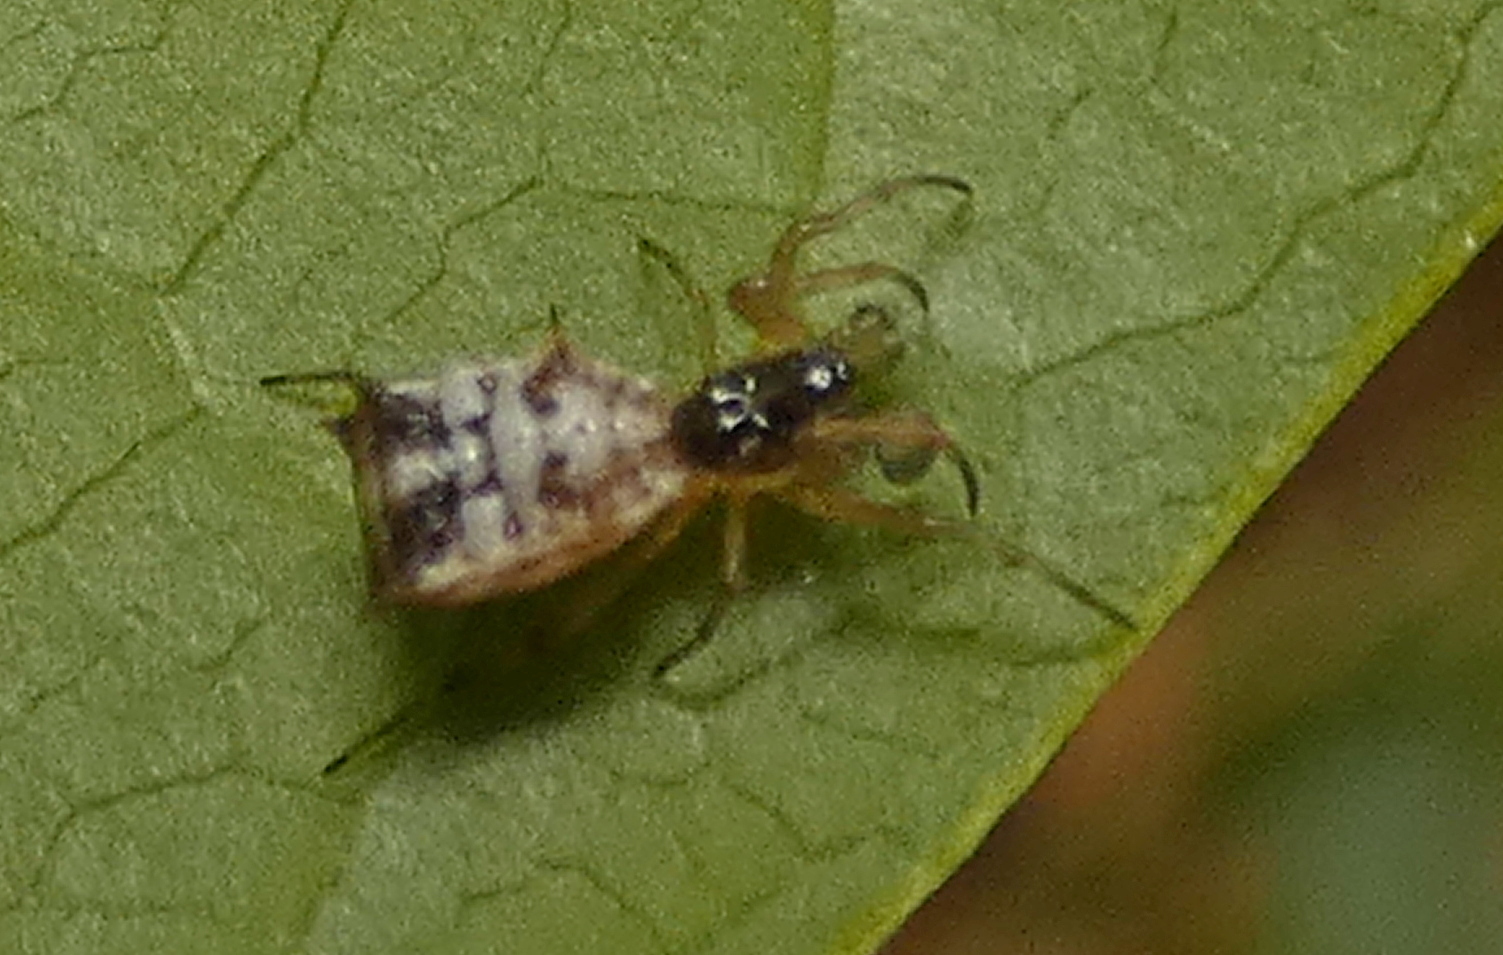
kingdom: Animalia
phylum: Arthropoda
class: Arachnida
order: Araneae
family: Araneidae
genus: Micrathena
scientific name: Micrathena picta
